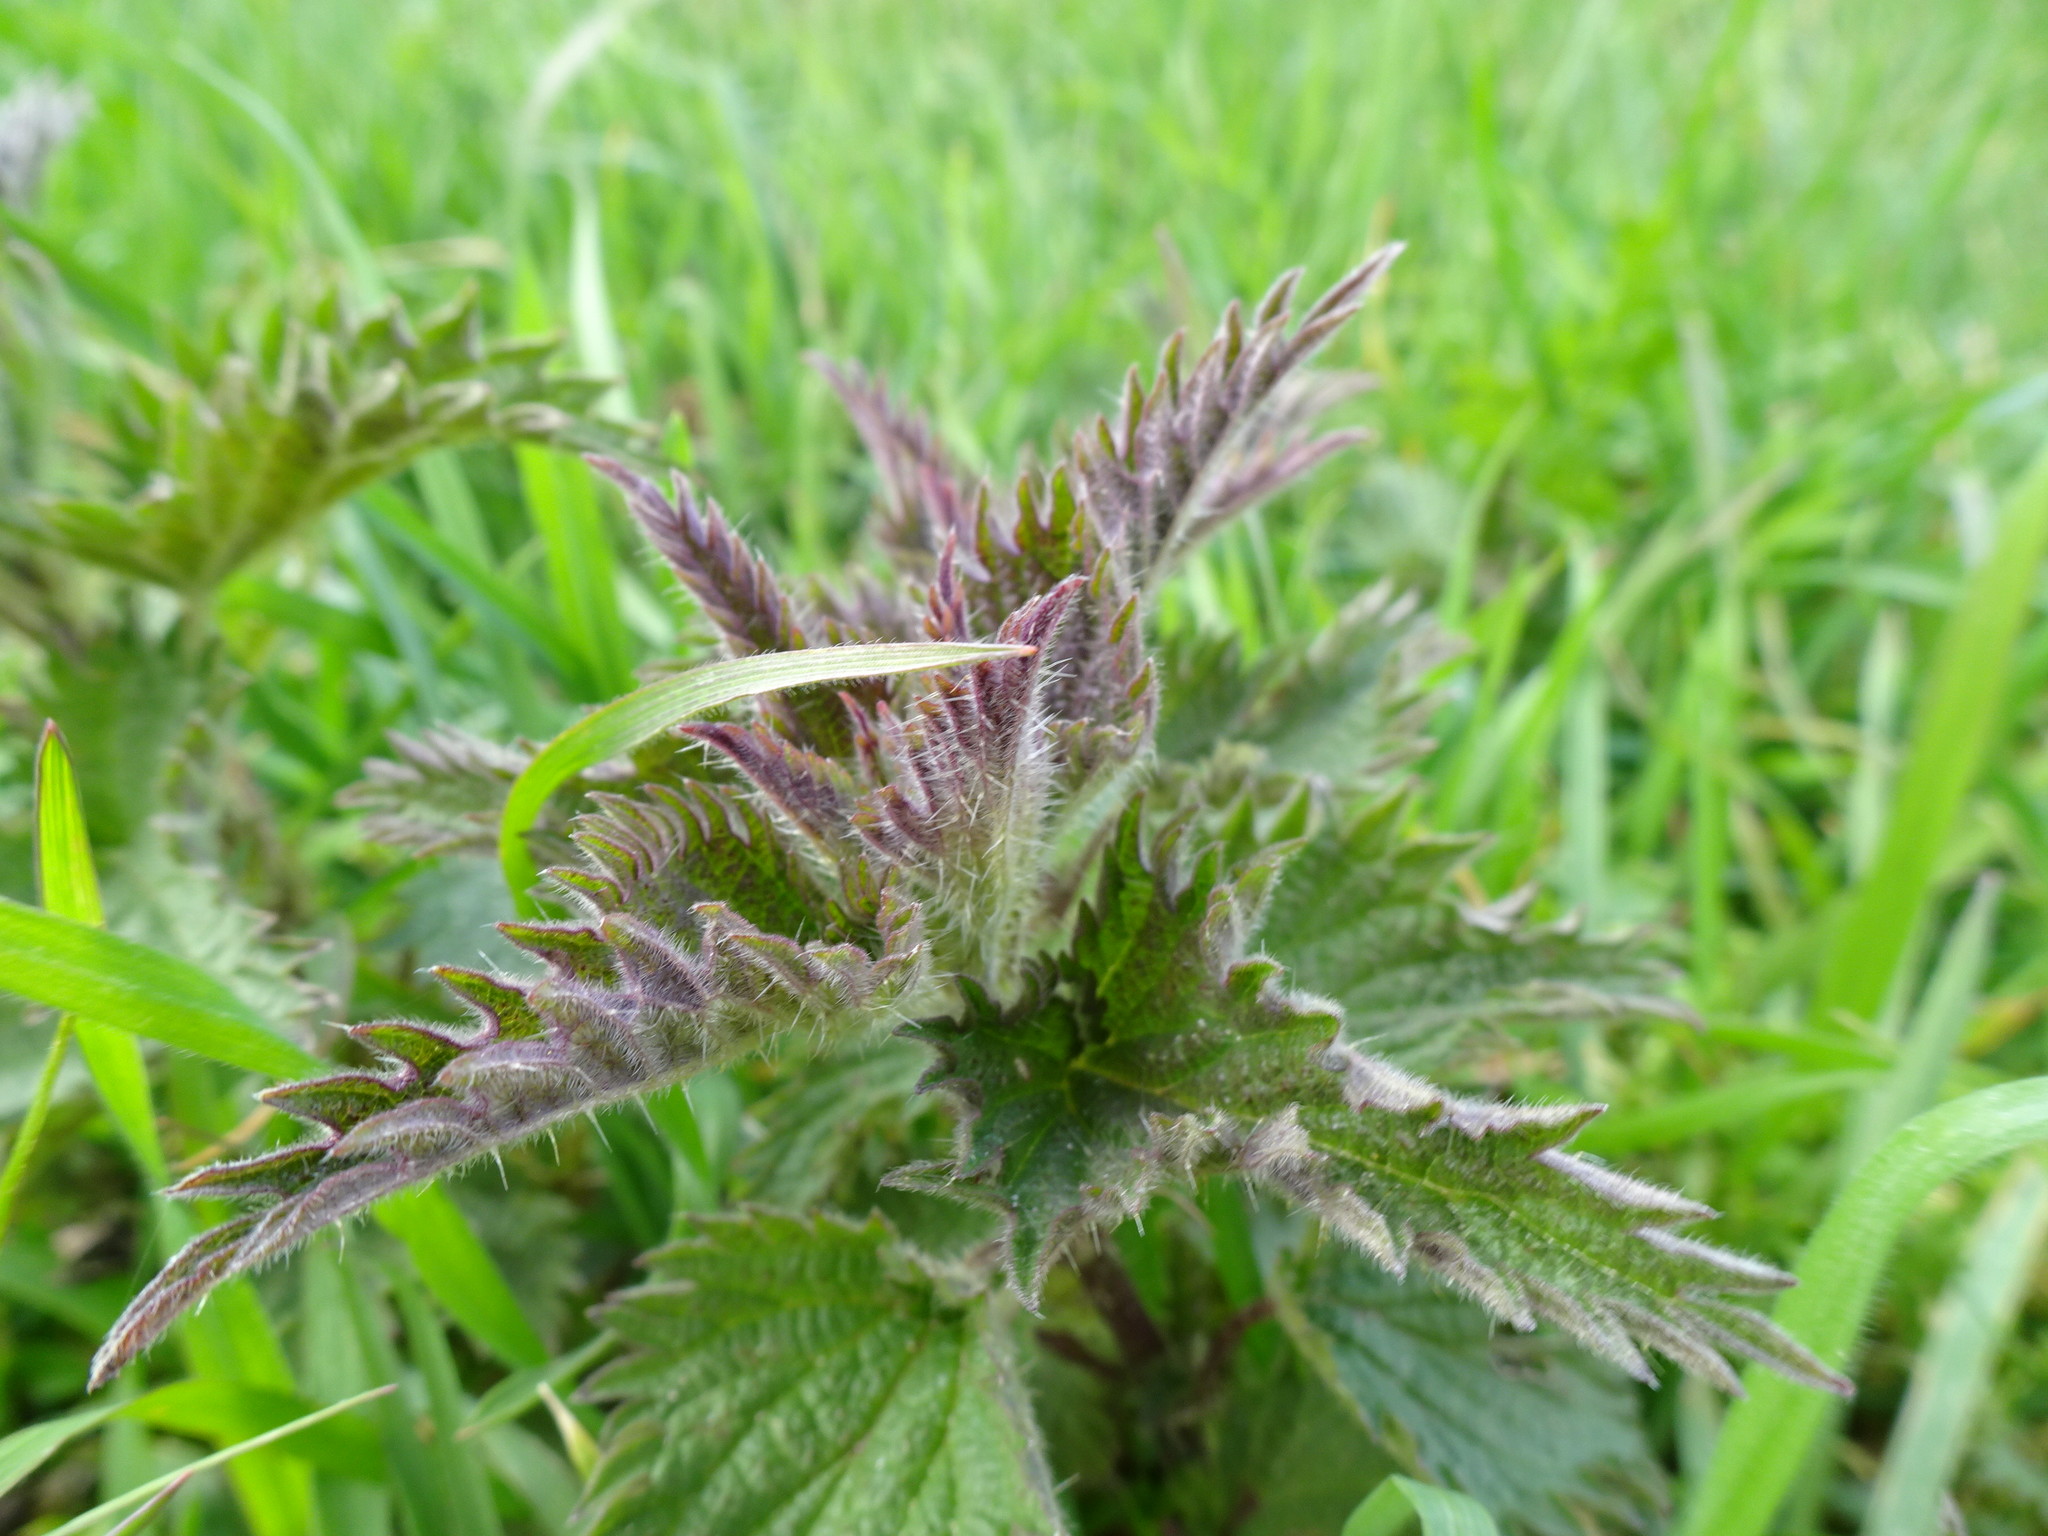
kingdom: Plantae
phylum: Tracheophyta
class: Magnoliopsida
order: Rosales
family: Urticaceae
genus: Urtica
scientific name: Urtica dioica
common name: Common nettle
